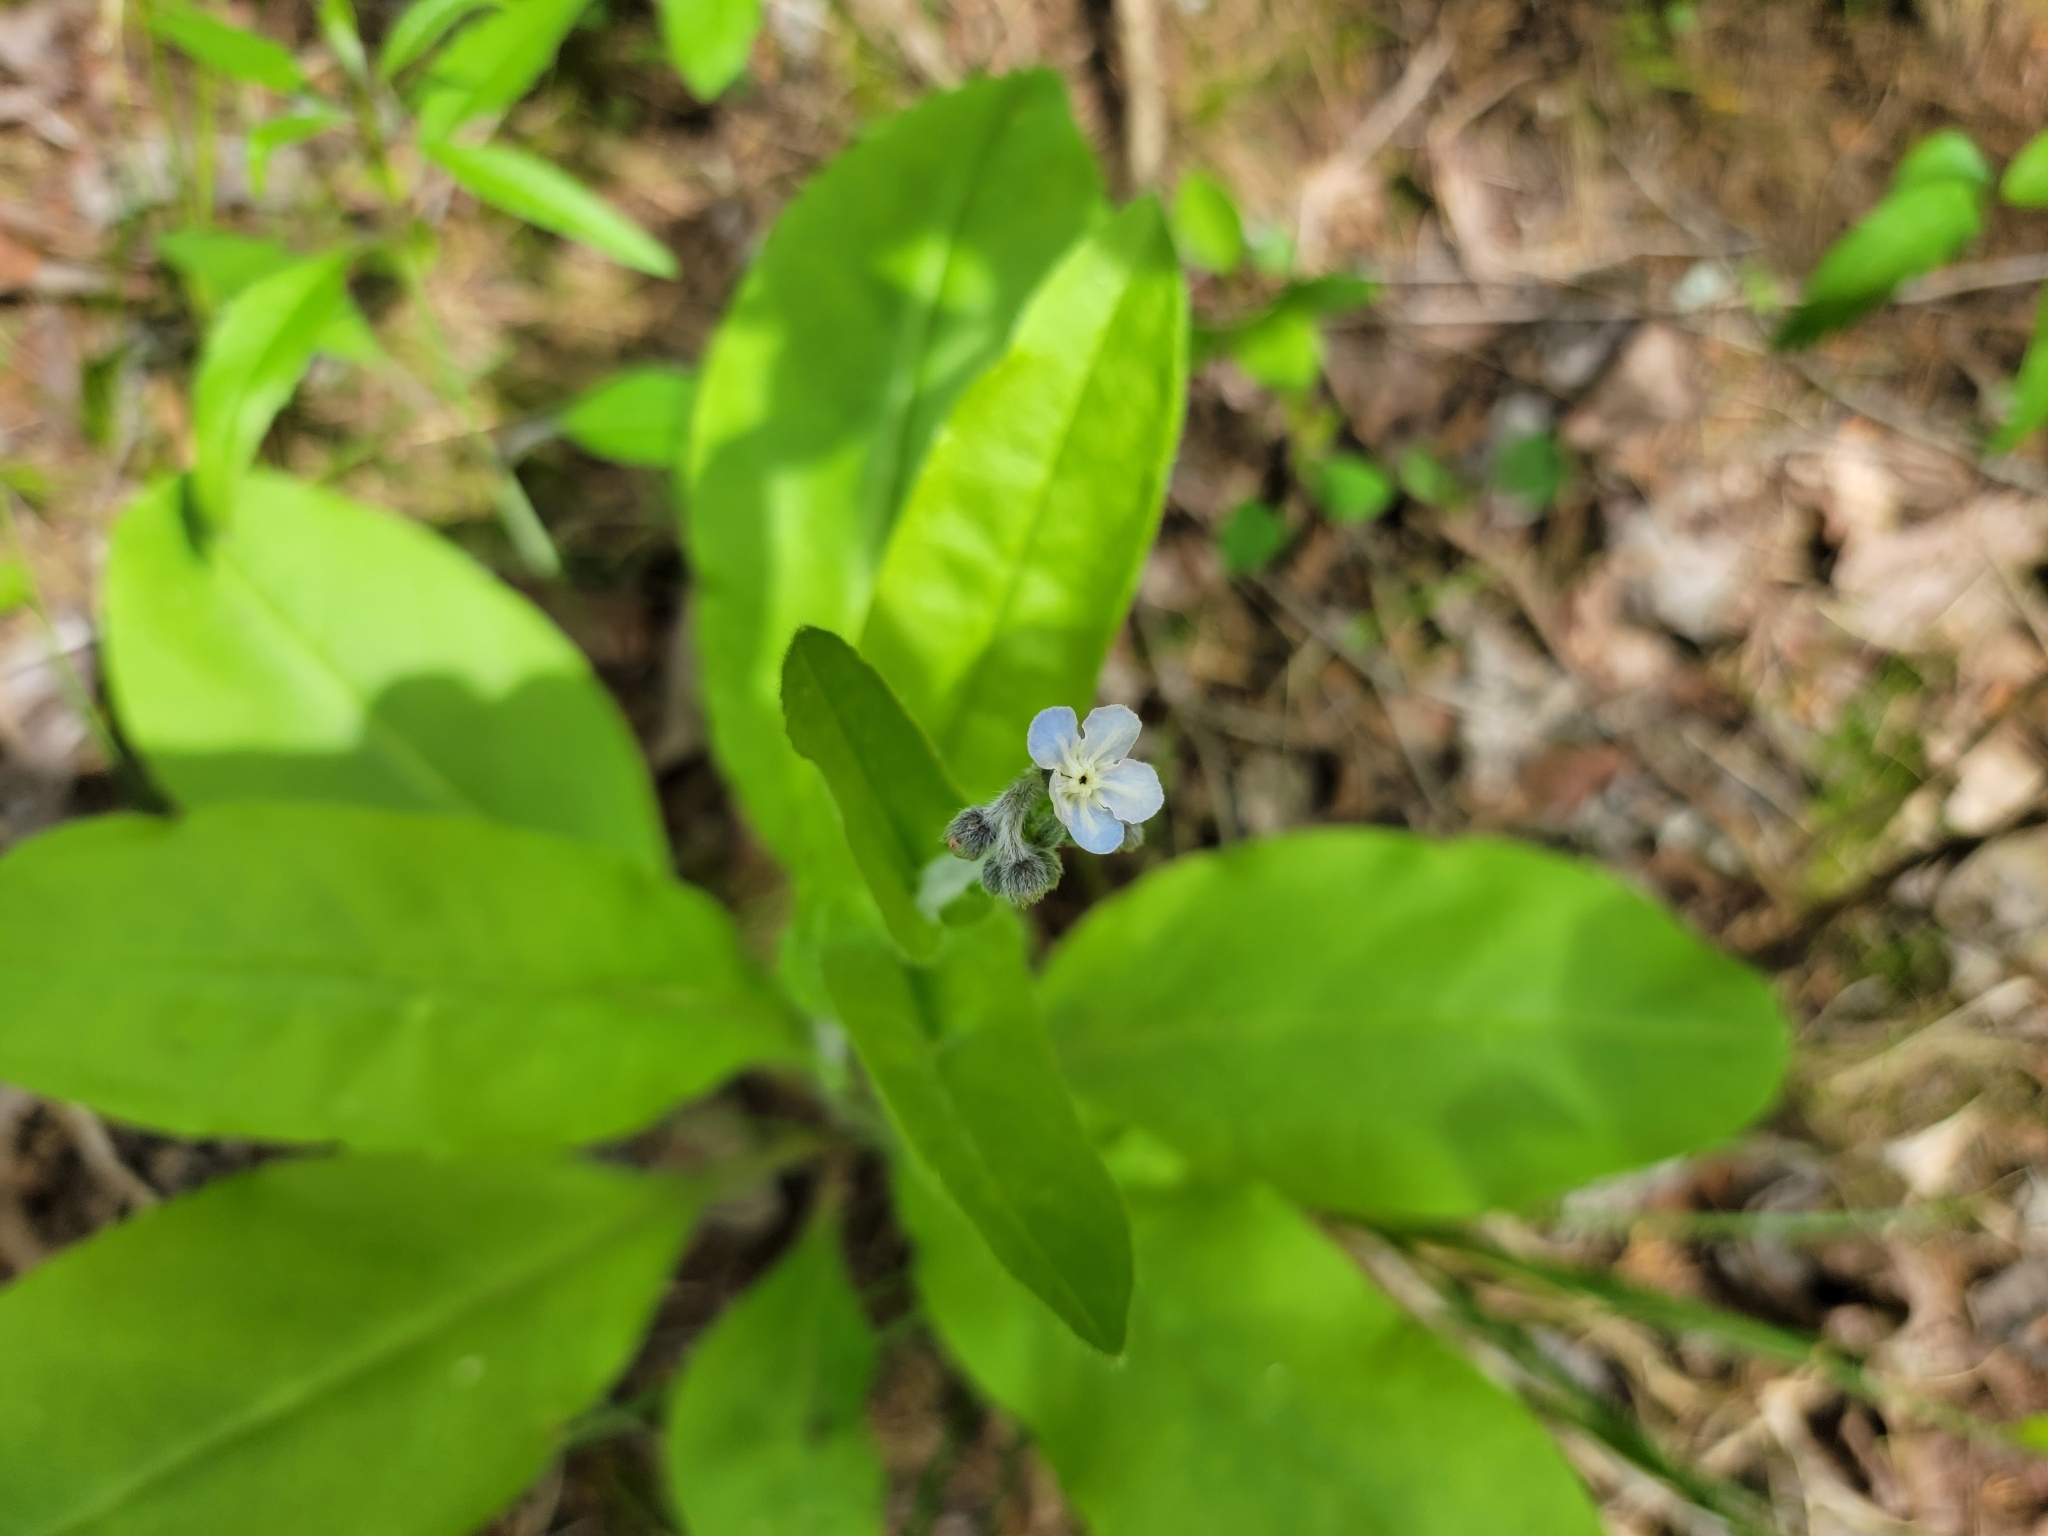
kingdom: Plantae
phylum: Tracheophyta
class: Magnoliopsida
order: Boraginales
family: Boraginaceae
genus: Andersonglossum
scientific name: Andersonglossum virginianum
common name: Wild comfrey
